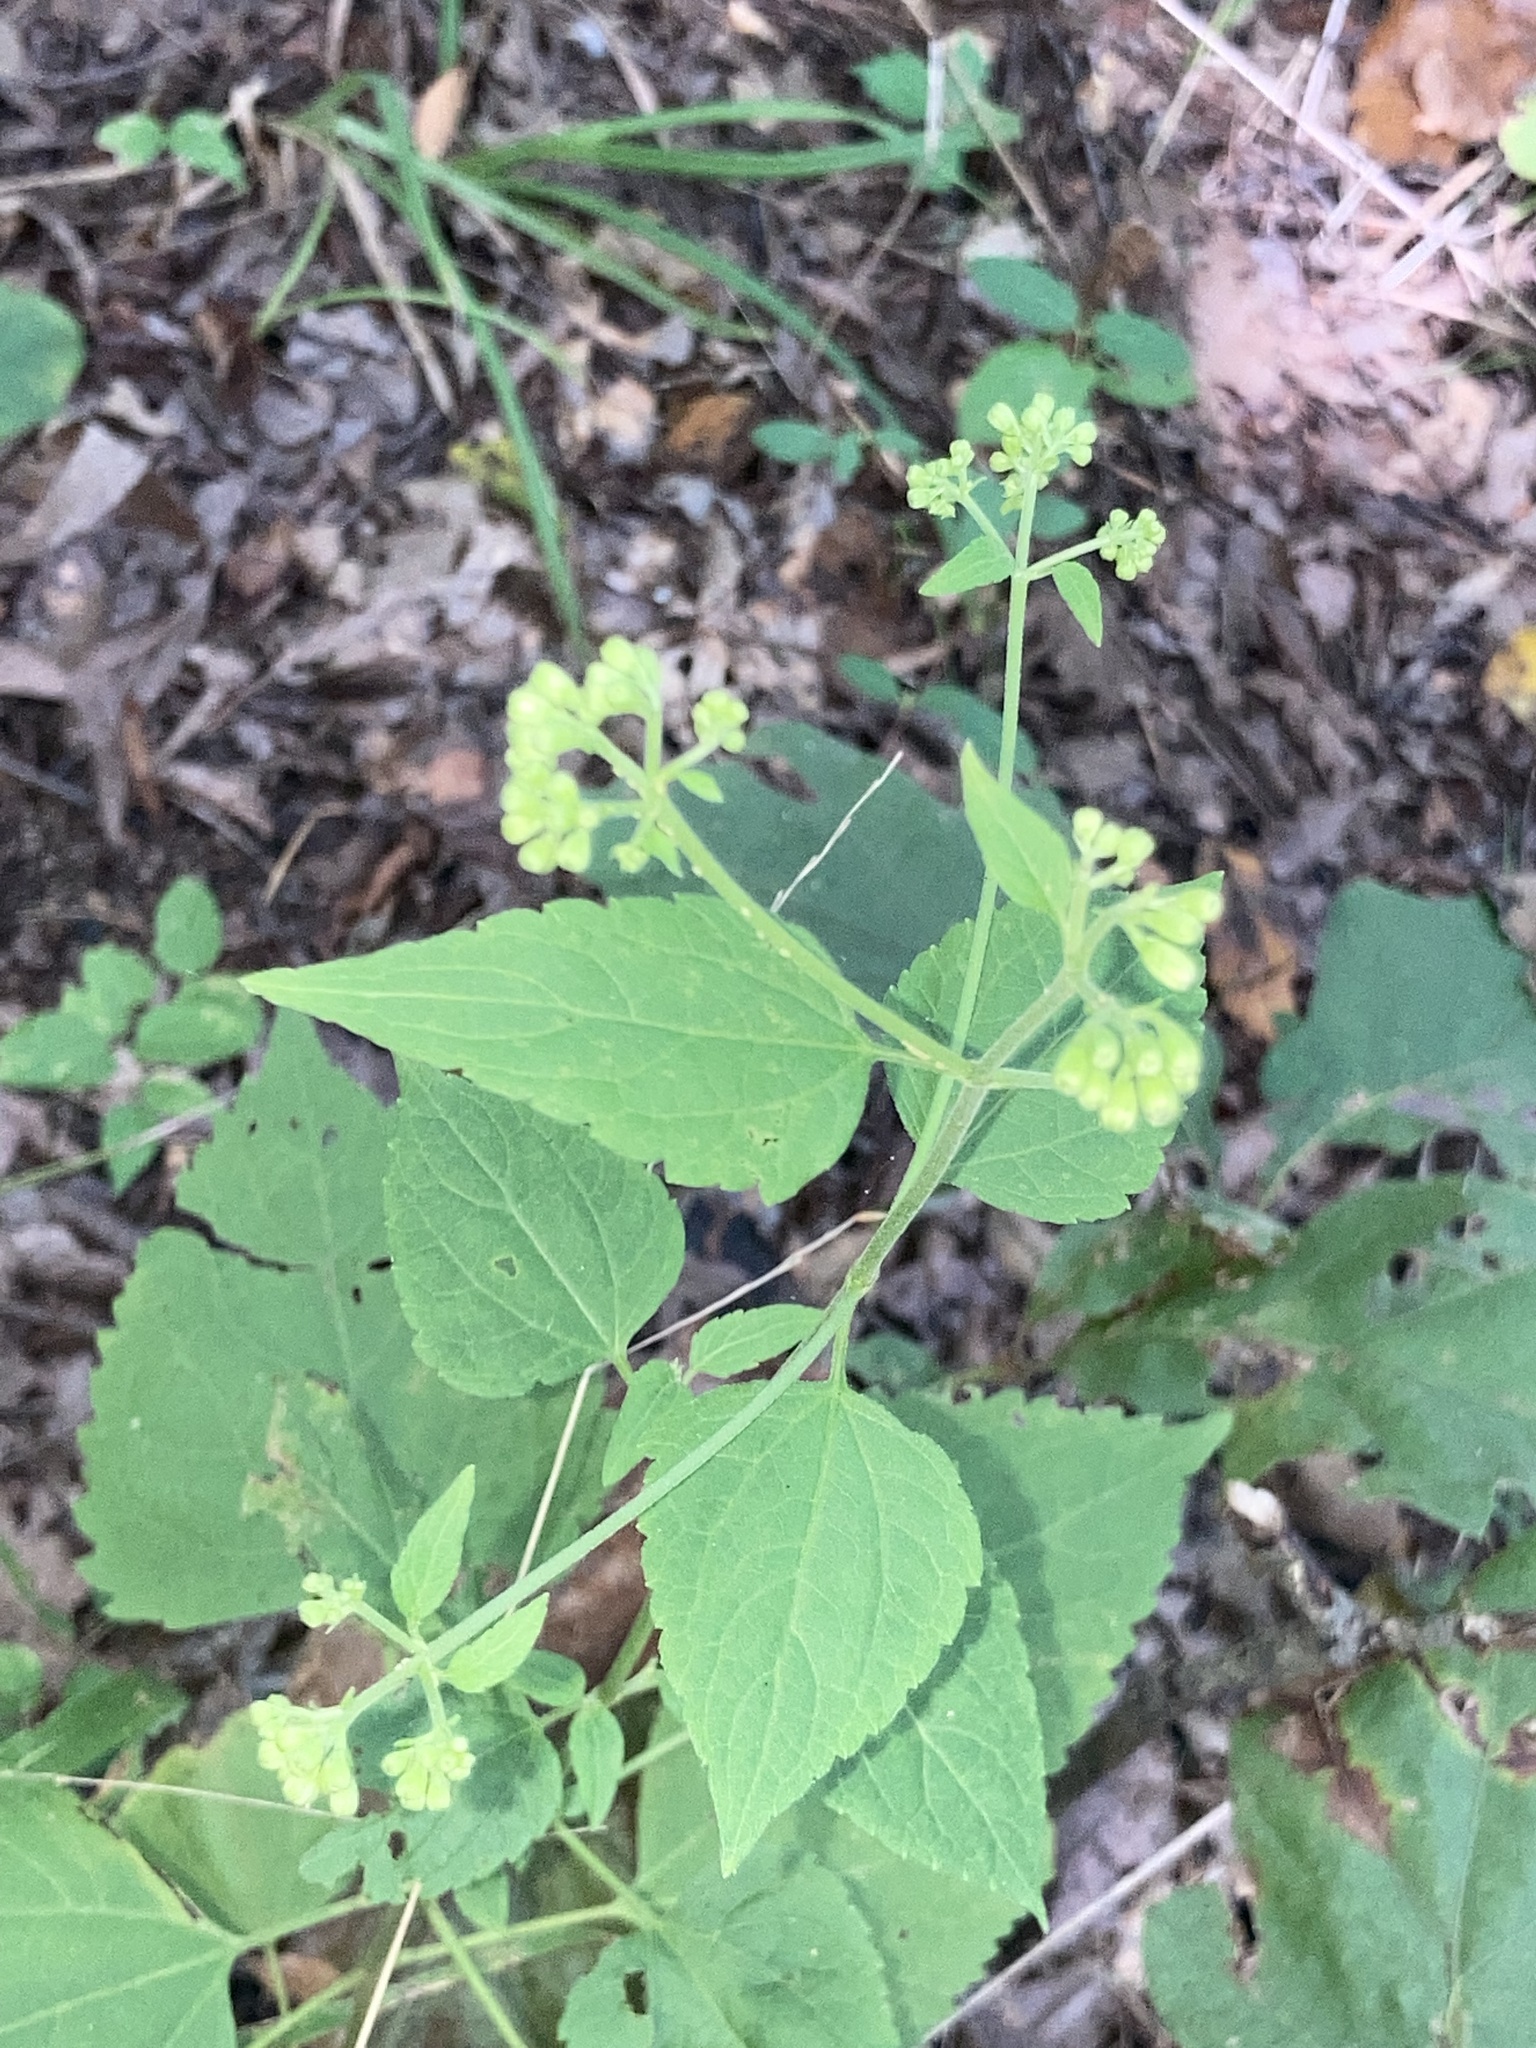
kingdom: Plantae
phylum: Tracheophyta
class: Magnoliopsida
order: Asterales
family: Asteraceae
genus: Ageratina
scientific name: Ageratina altissima
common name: White snakeroot
